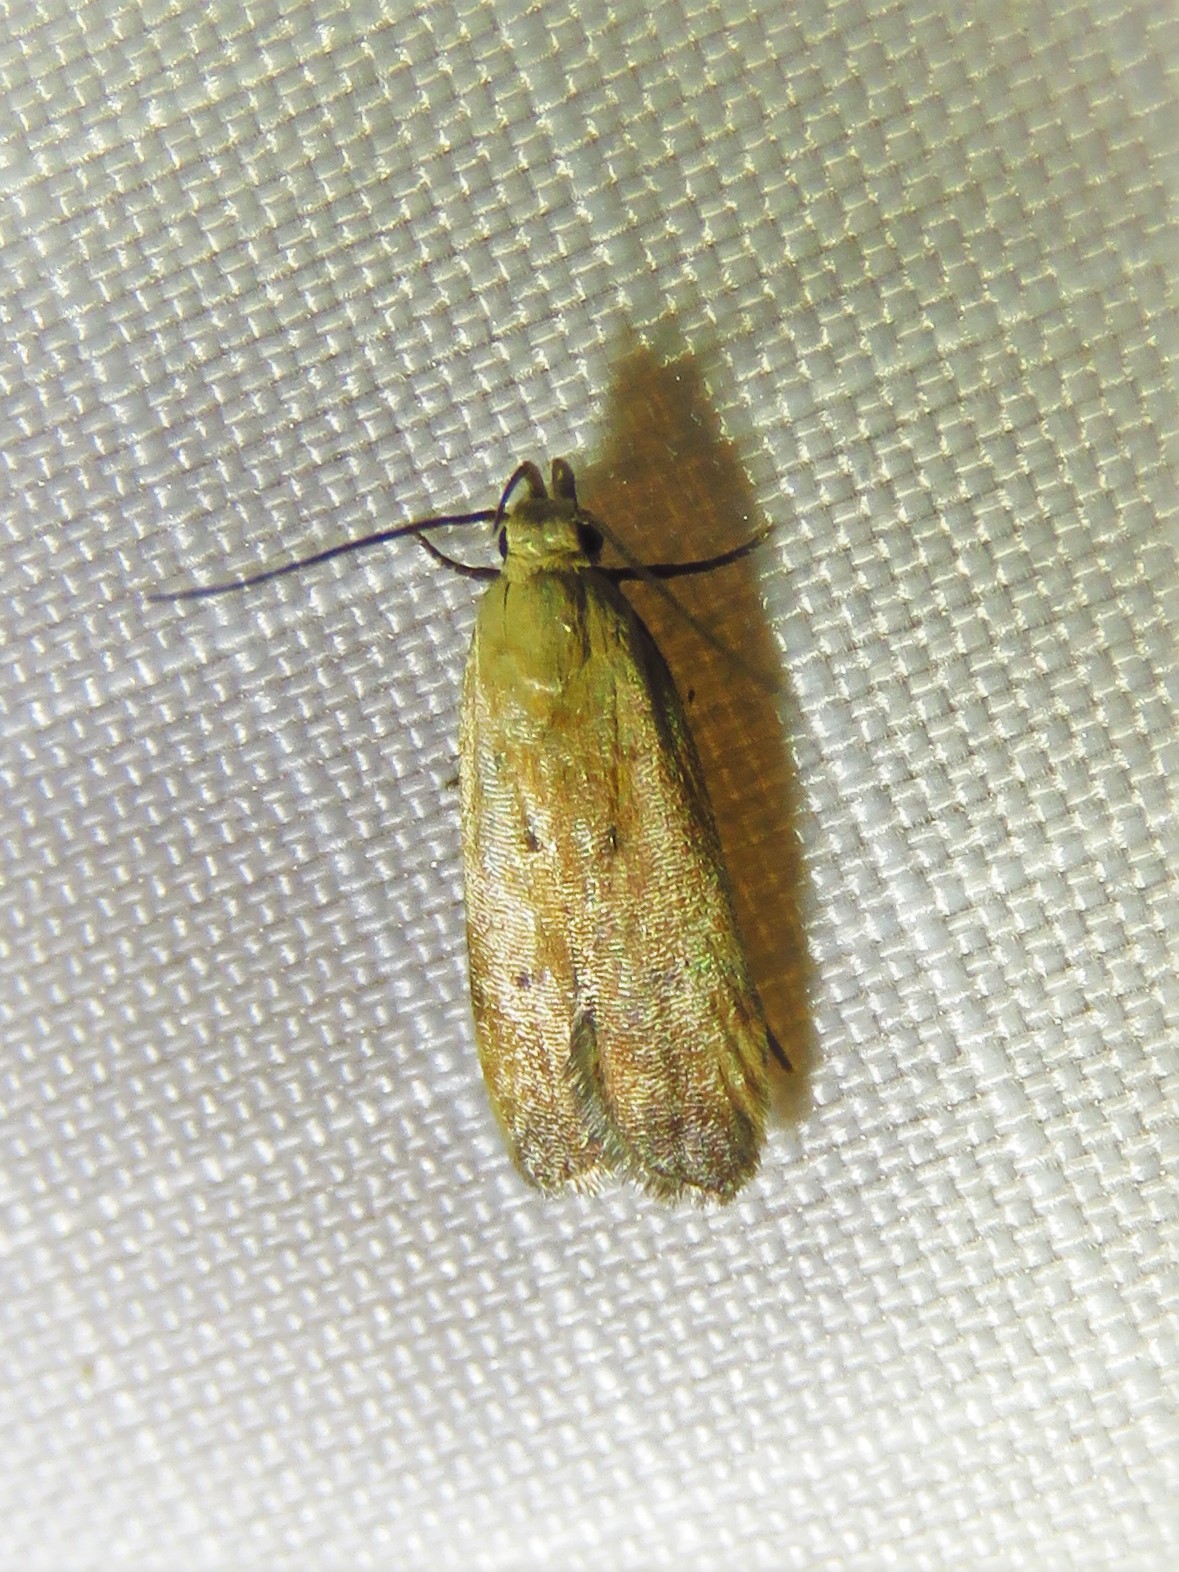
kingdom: Animalia
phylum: Arthropoda
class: Insecta
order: Lepidoptera
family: Gelechiidae
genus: Anacampsis
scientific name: Anacampsis fullonella
